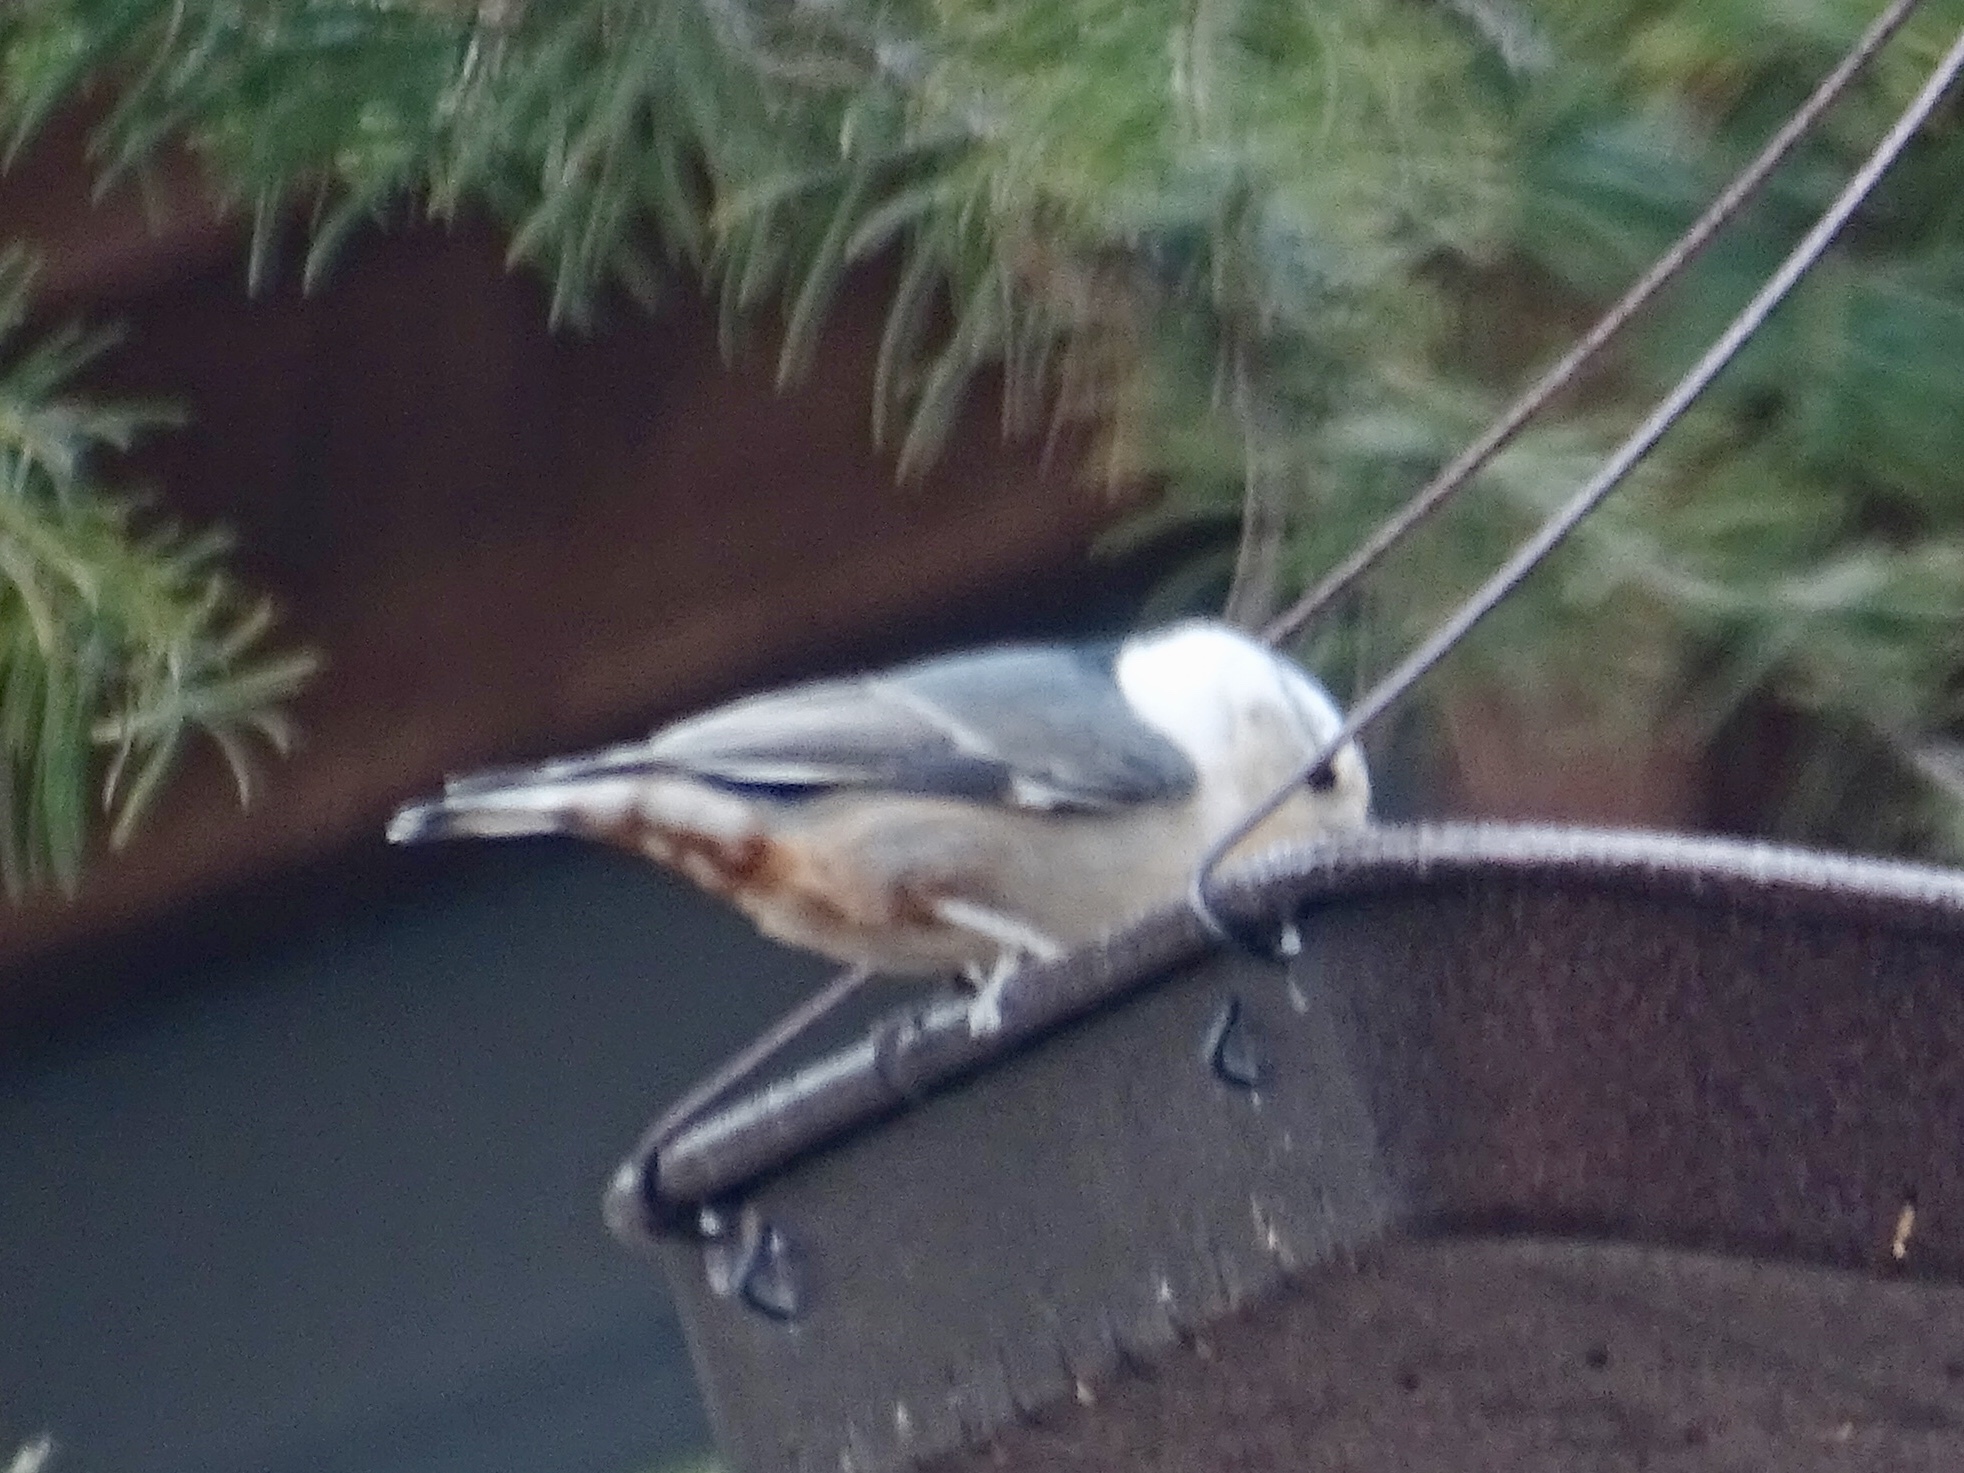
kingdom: Animalia
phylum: Chordata
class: Aves
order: Passeriformes
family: Sittidae
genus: Sitta
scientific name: Sitta carolinensis
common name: White-breasted nuthatch
